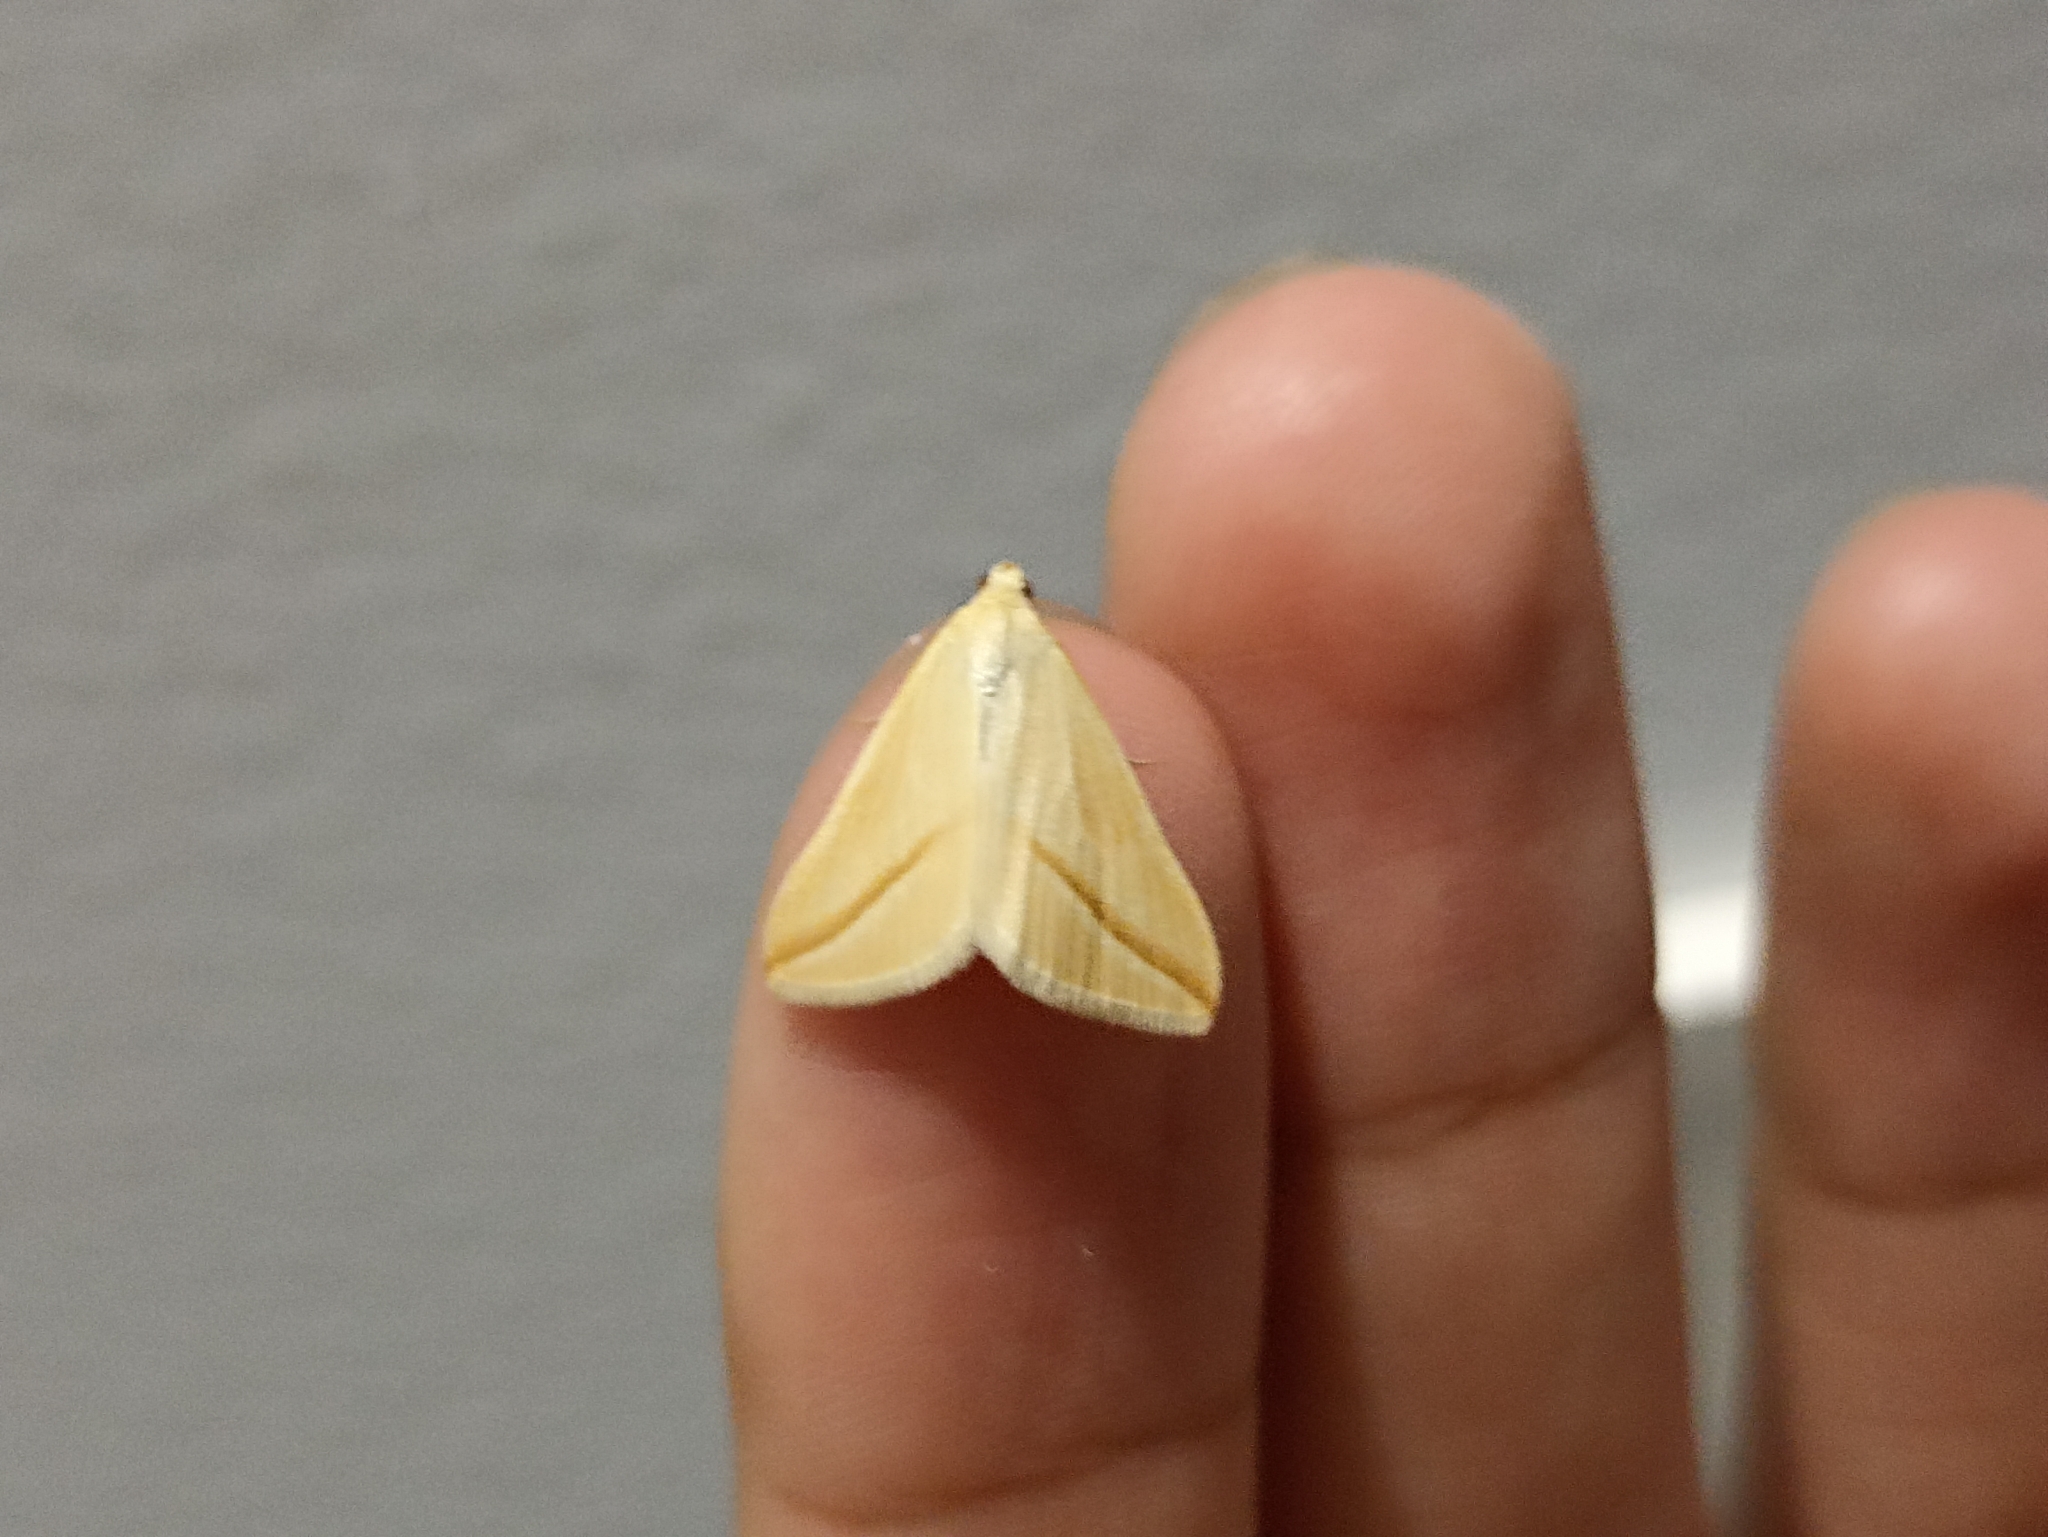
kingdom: Animalia
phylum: Arthropoda
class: Insecta
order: Lepidoptera
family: Geometridae
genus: Rhodometra
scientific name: Rhodometra sacraria
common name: Vestal
